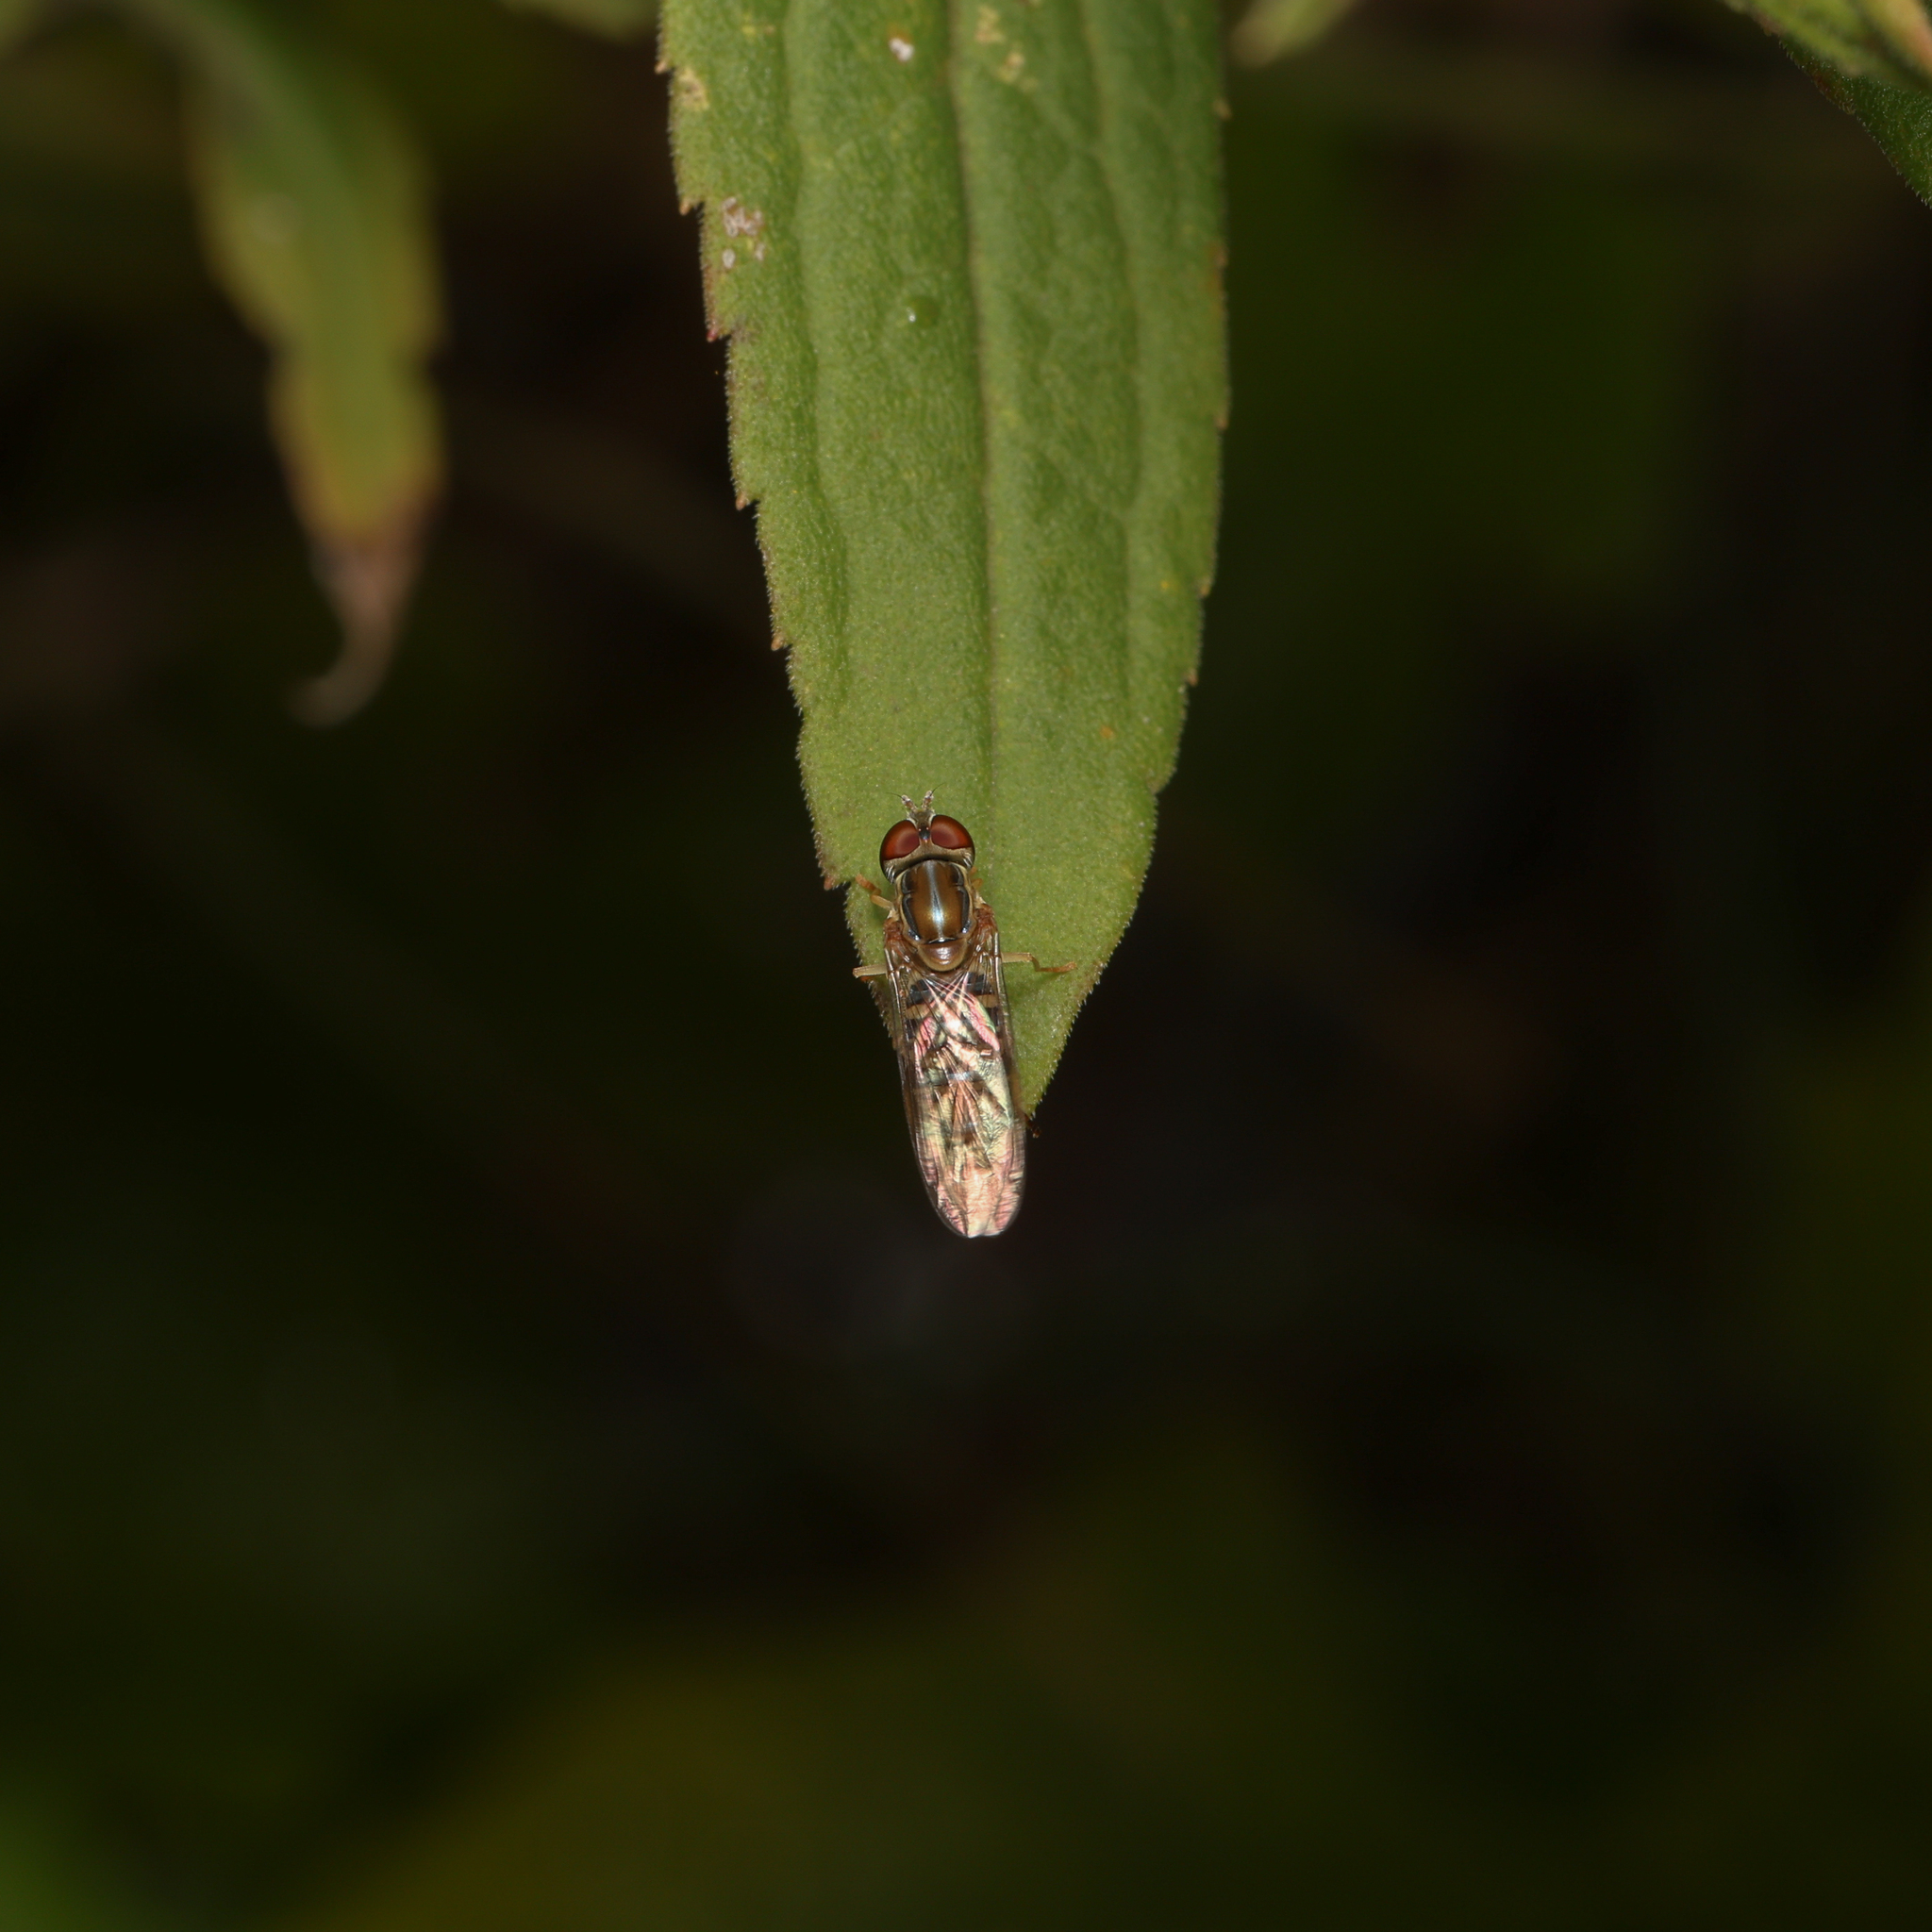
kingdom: Animalia
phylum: Arthropoda
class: Insecta
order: Diptera
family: Syrphidae
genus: Toxomerus
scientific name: Toxomerus politus
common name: Maize calligrapher
